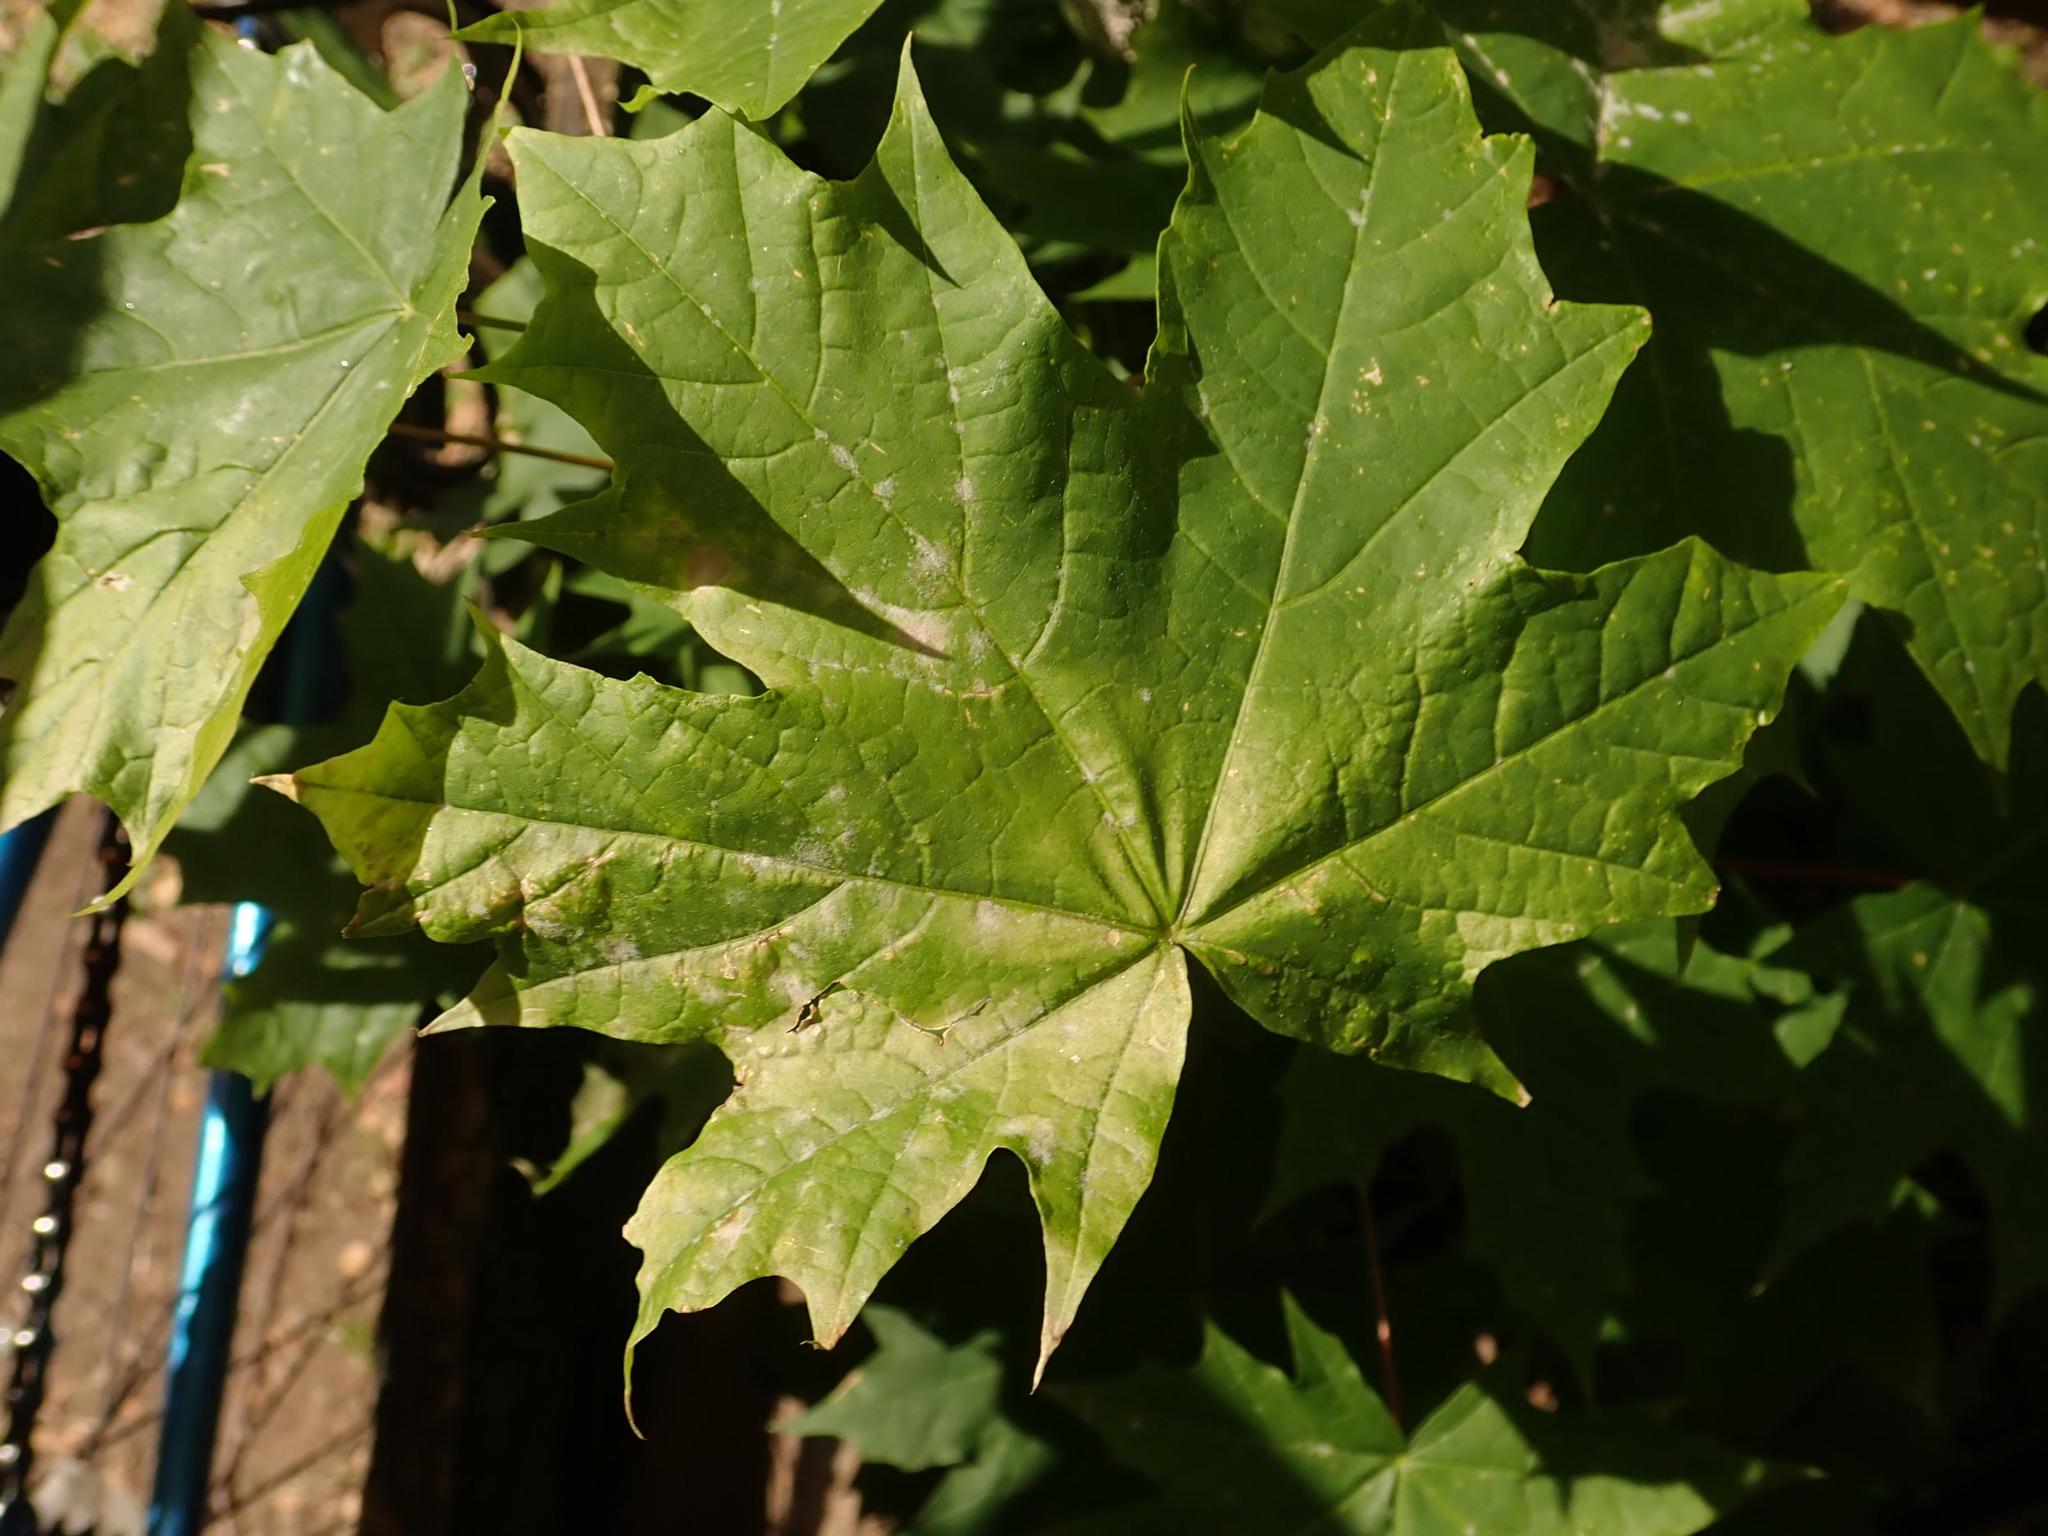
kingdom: Plantae
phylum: Tracheophyta
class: Magnoliopsida
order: Sapindales
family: Sapindaceae
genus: Acer
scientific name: Acer platanoides
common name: Norway maple
